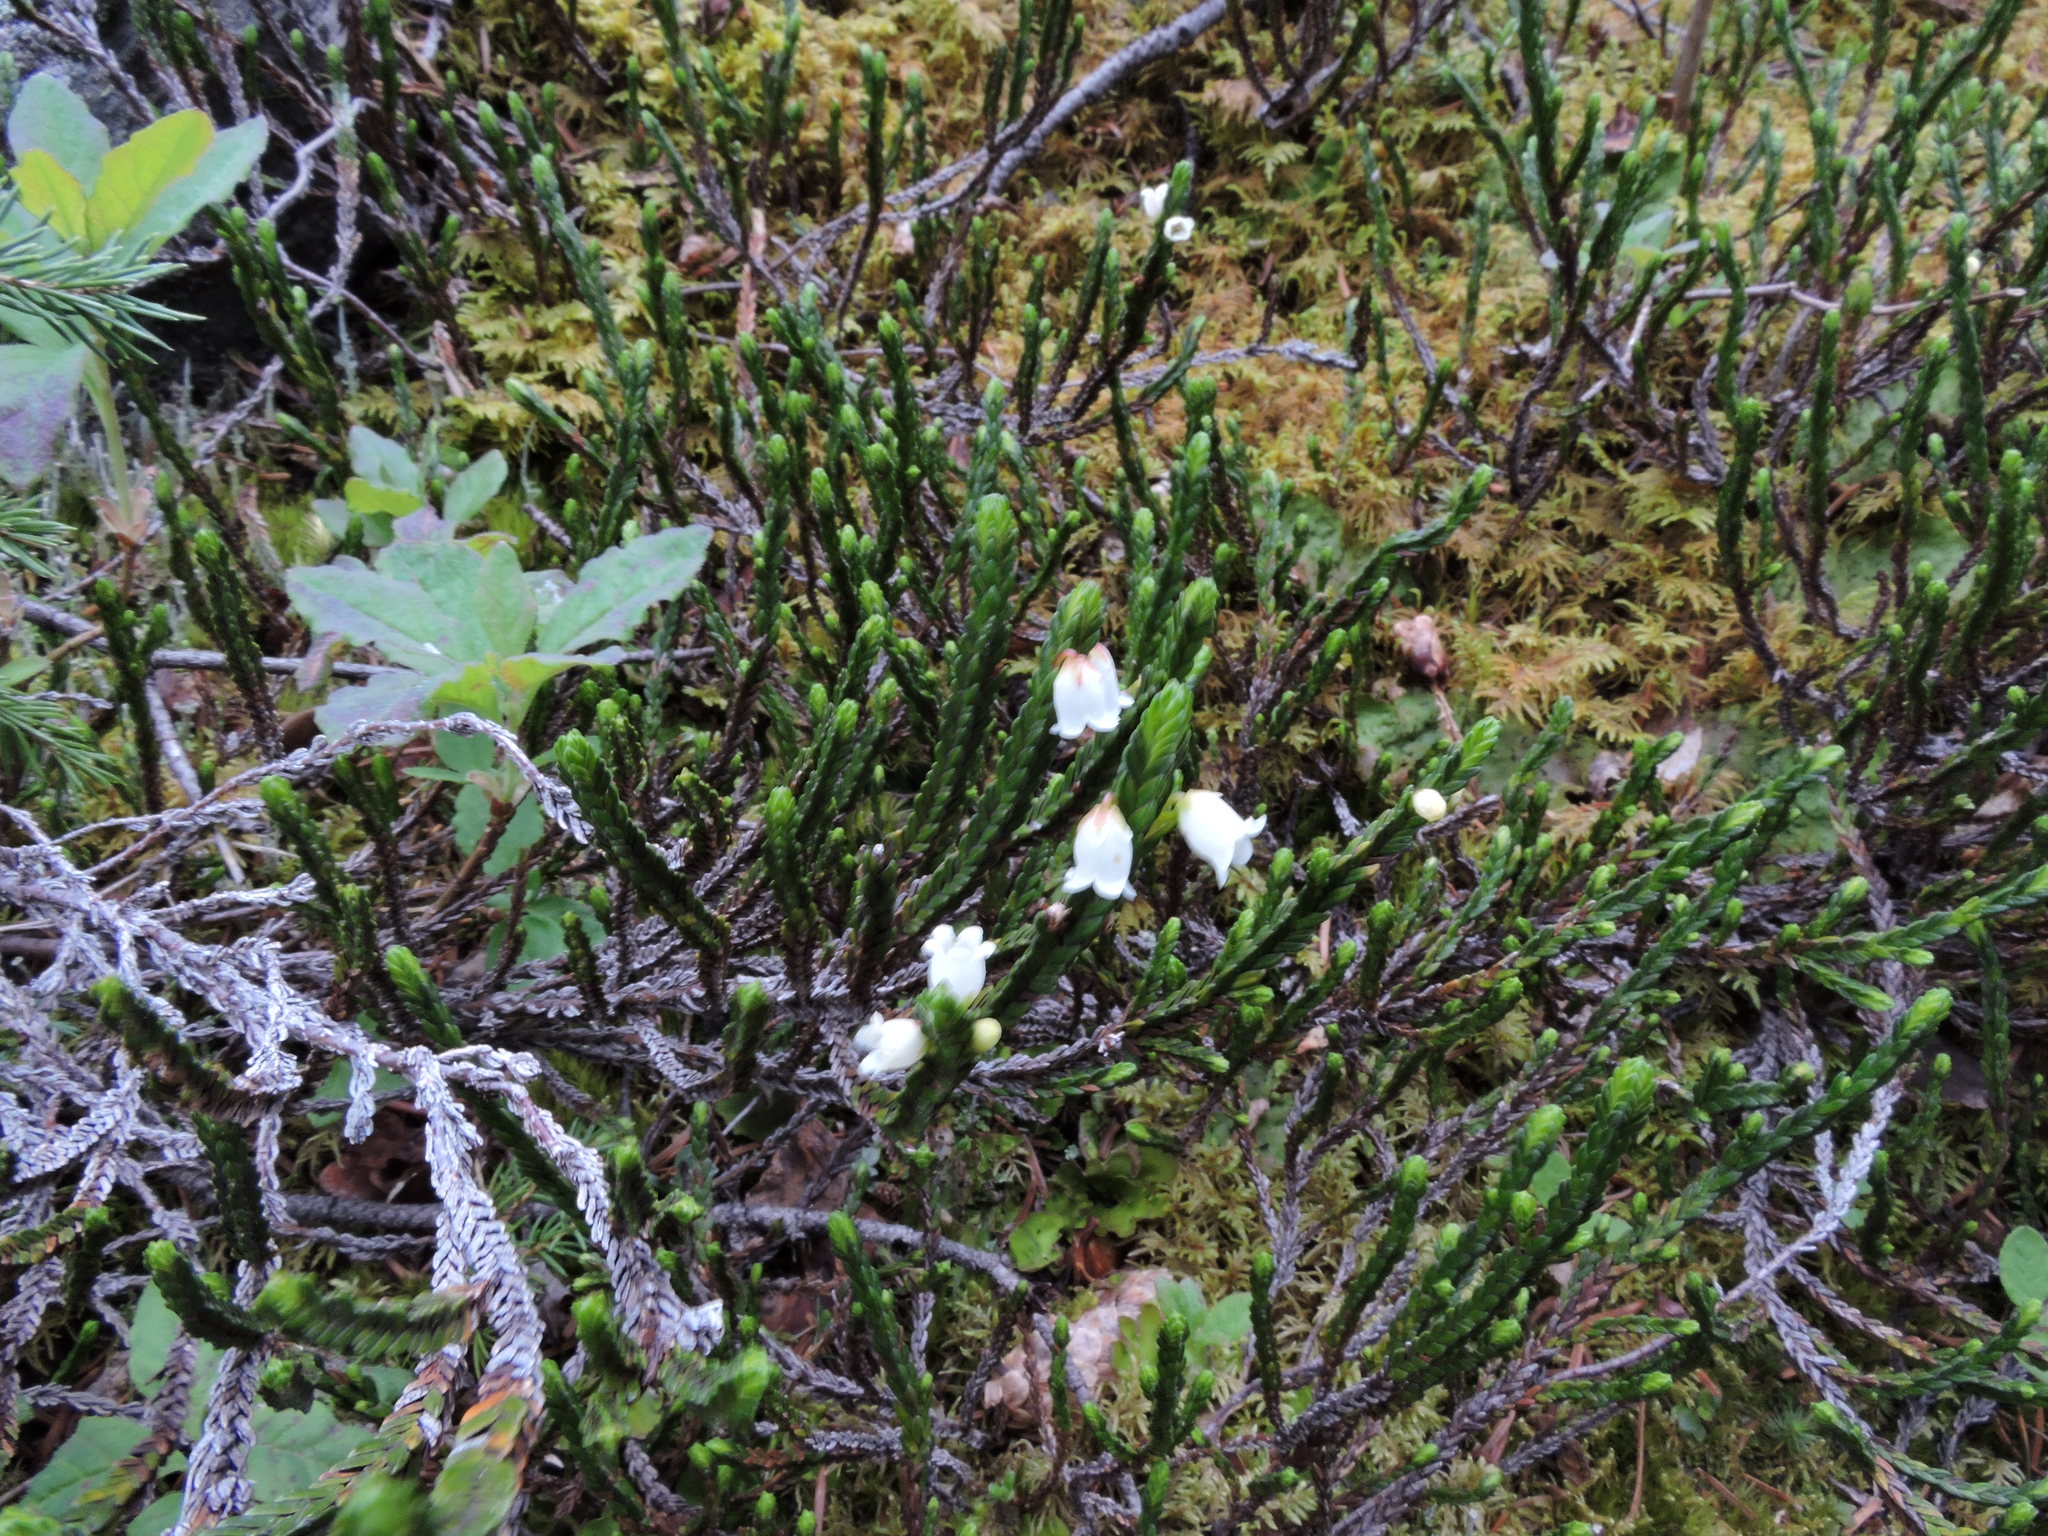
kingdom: Plantae
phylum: Tracheophyta
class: Magnoliopsida
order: Ericales
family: Ericaceae
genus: Cassiope
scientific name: Cassiope tetragona
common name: Arctic bell heather
